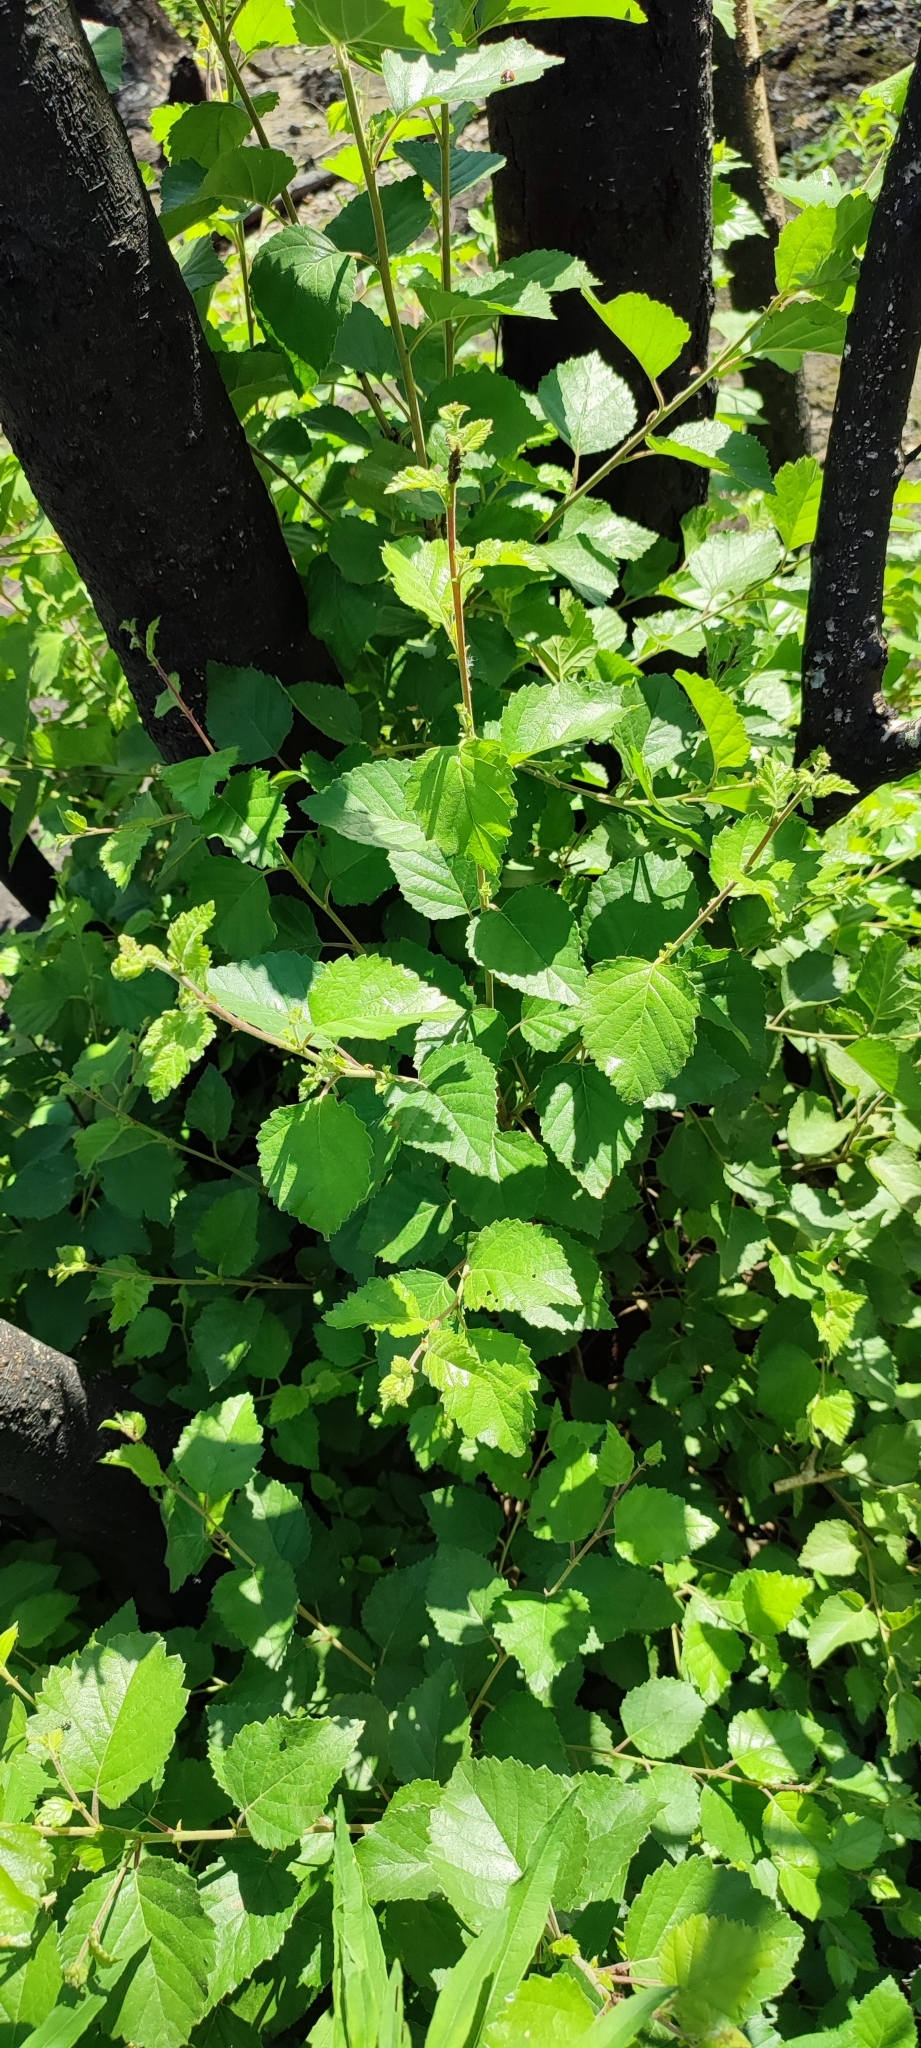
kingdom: Plantae
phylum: Tracheophyta
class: Magnoliopsida
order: Fagales
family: Betulaceae
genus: Betula
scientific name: Betula pendula
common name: Silver birch
